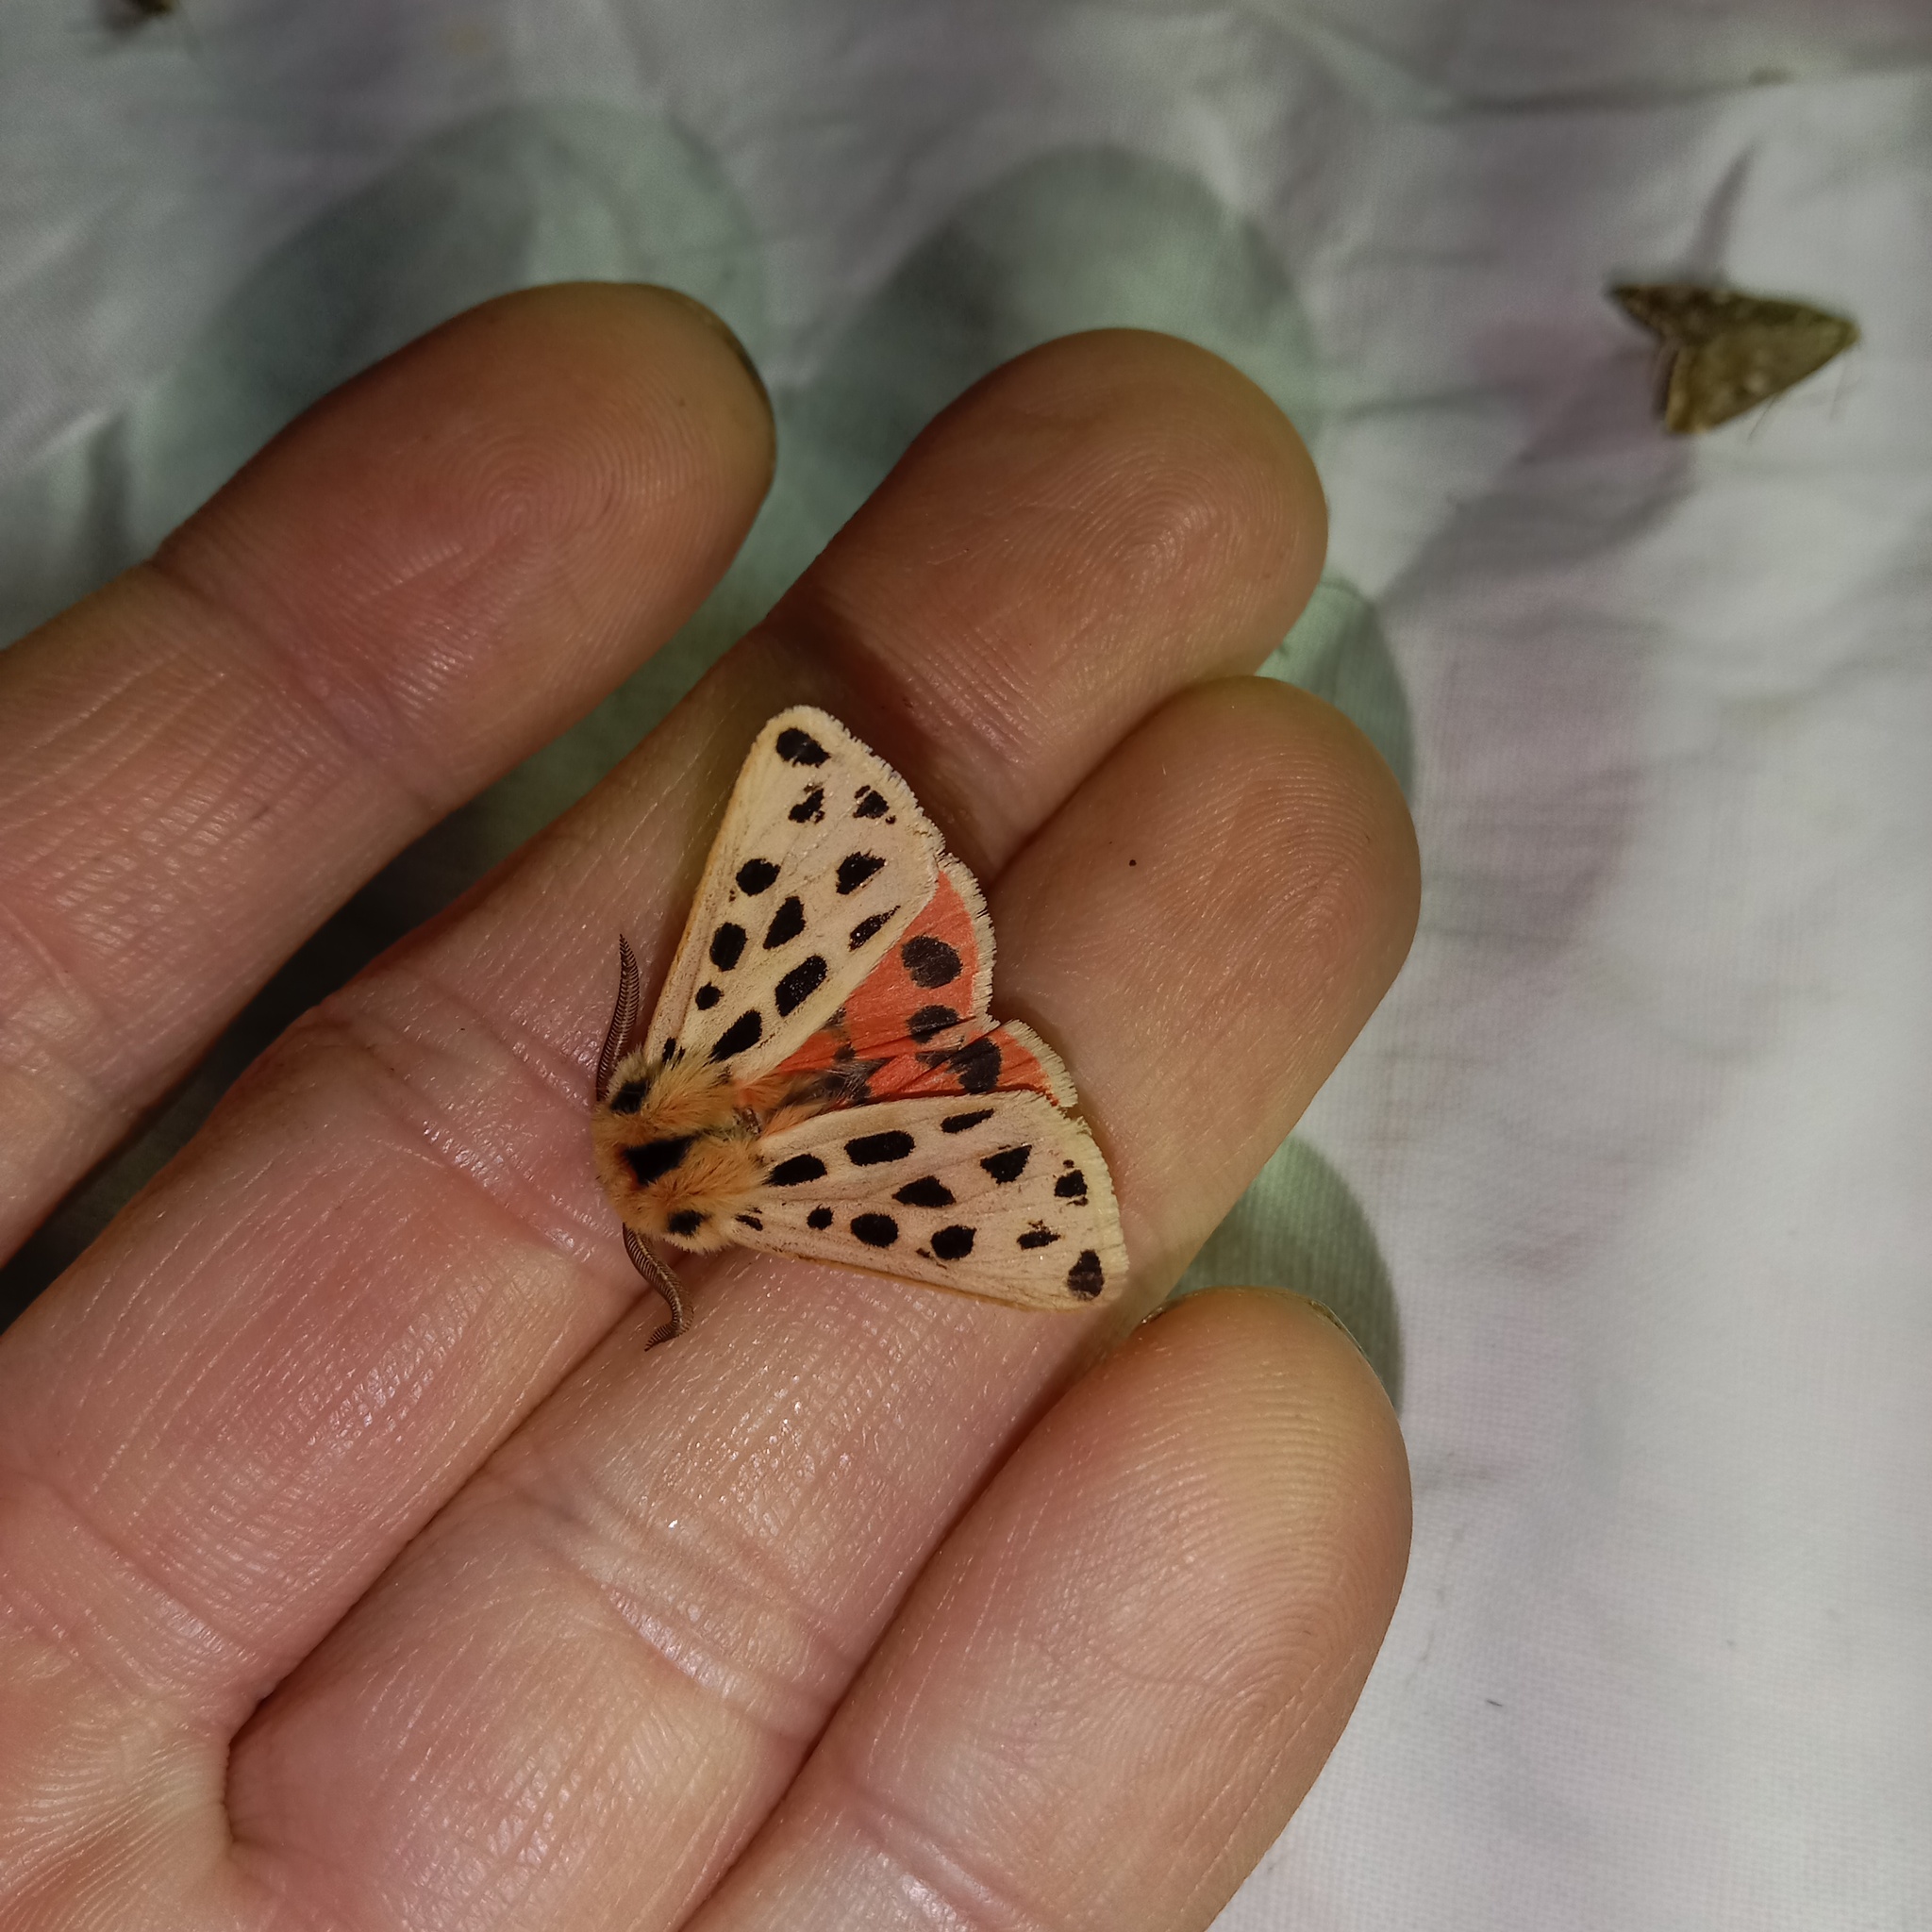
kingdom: Animalia
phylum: Arthropoda
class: Insecta
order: Lepidoptera
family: Erebidae
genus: Chelis
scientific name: Chelis maculosa
